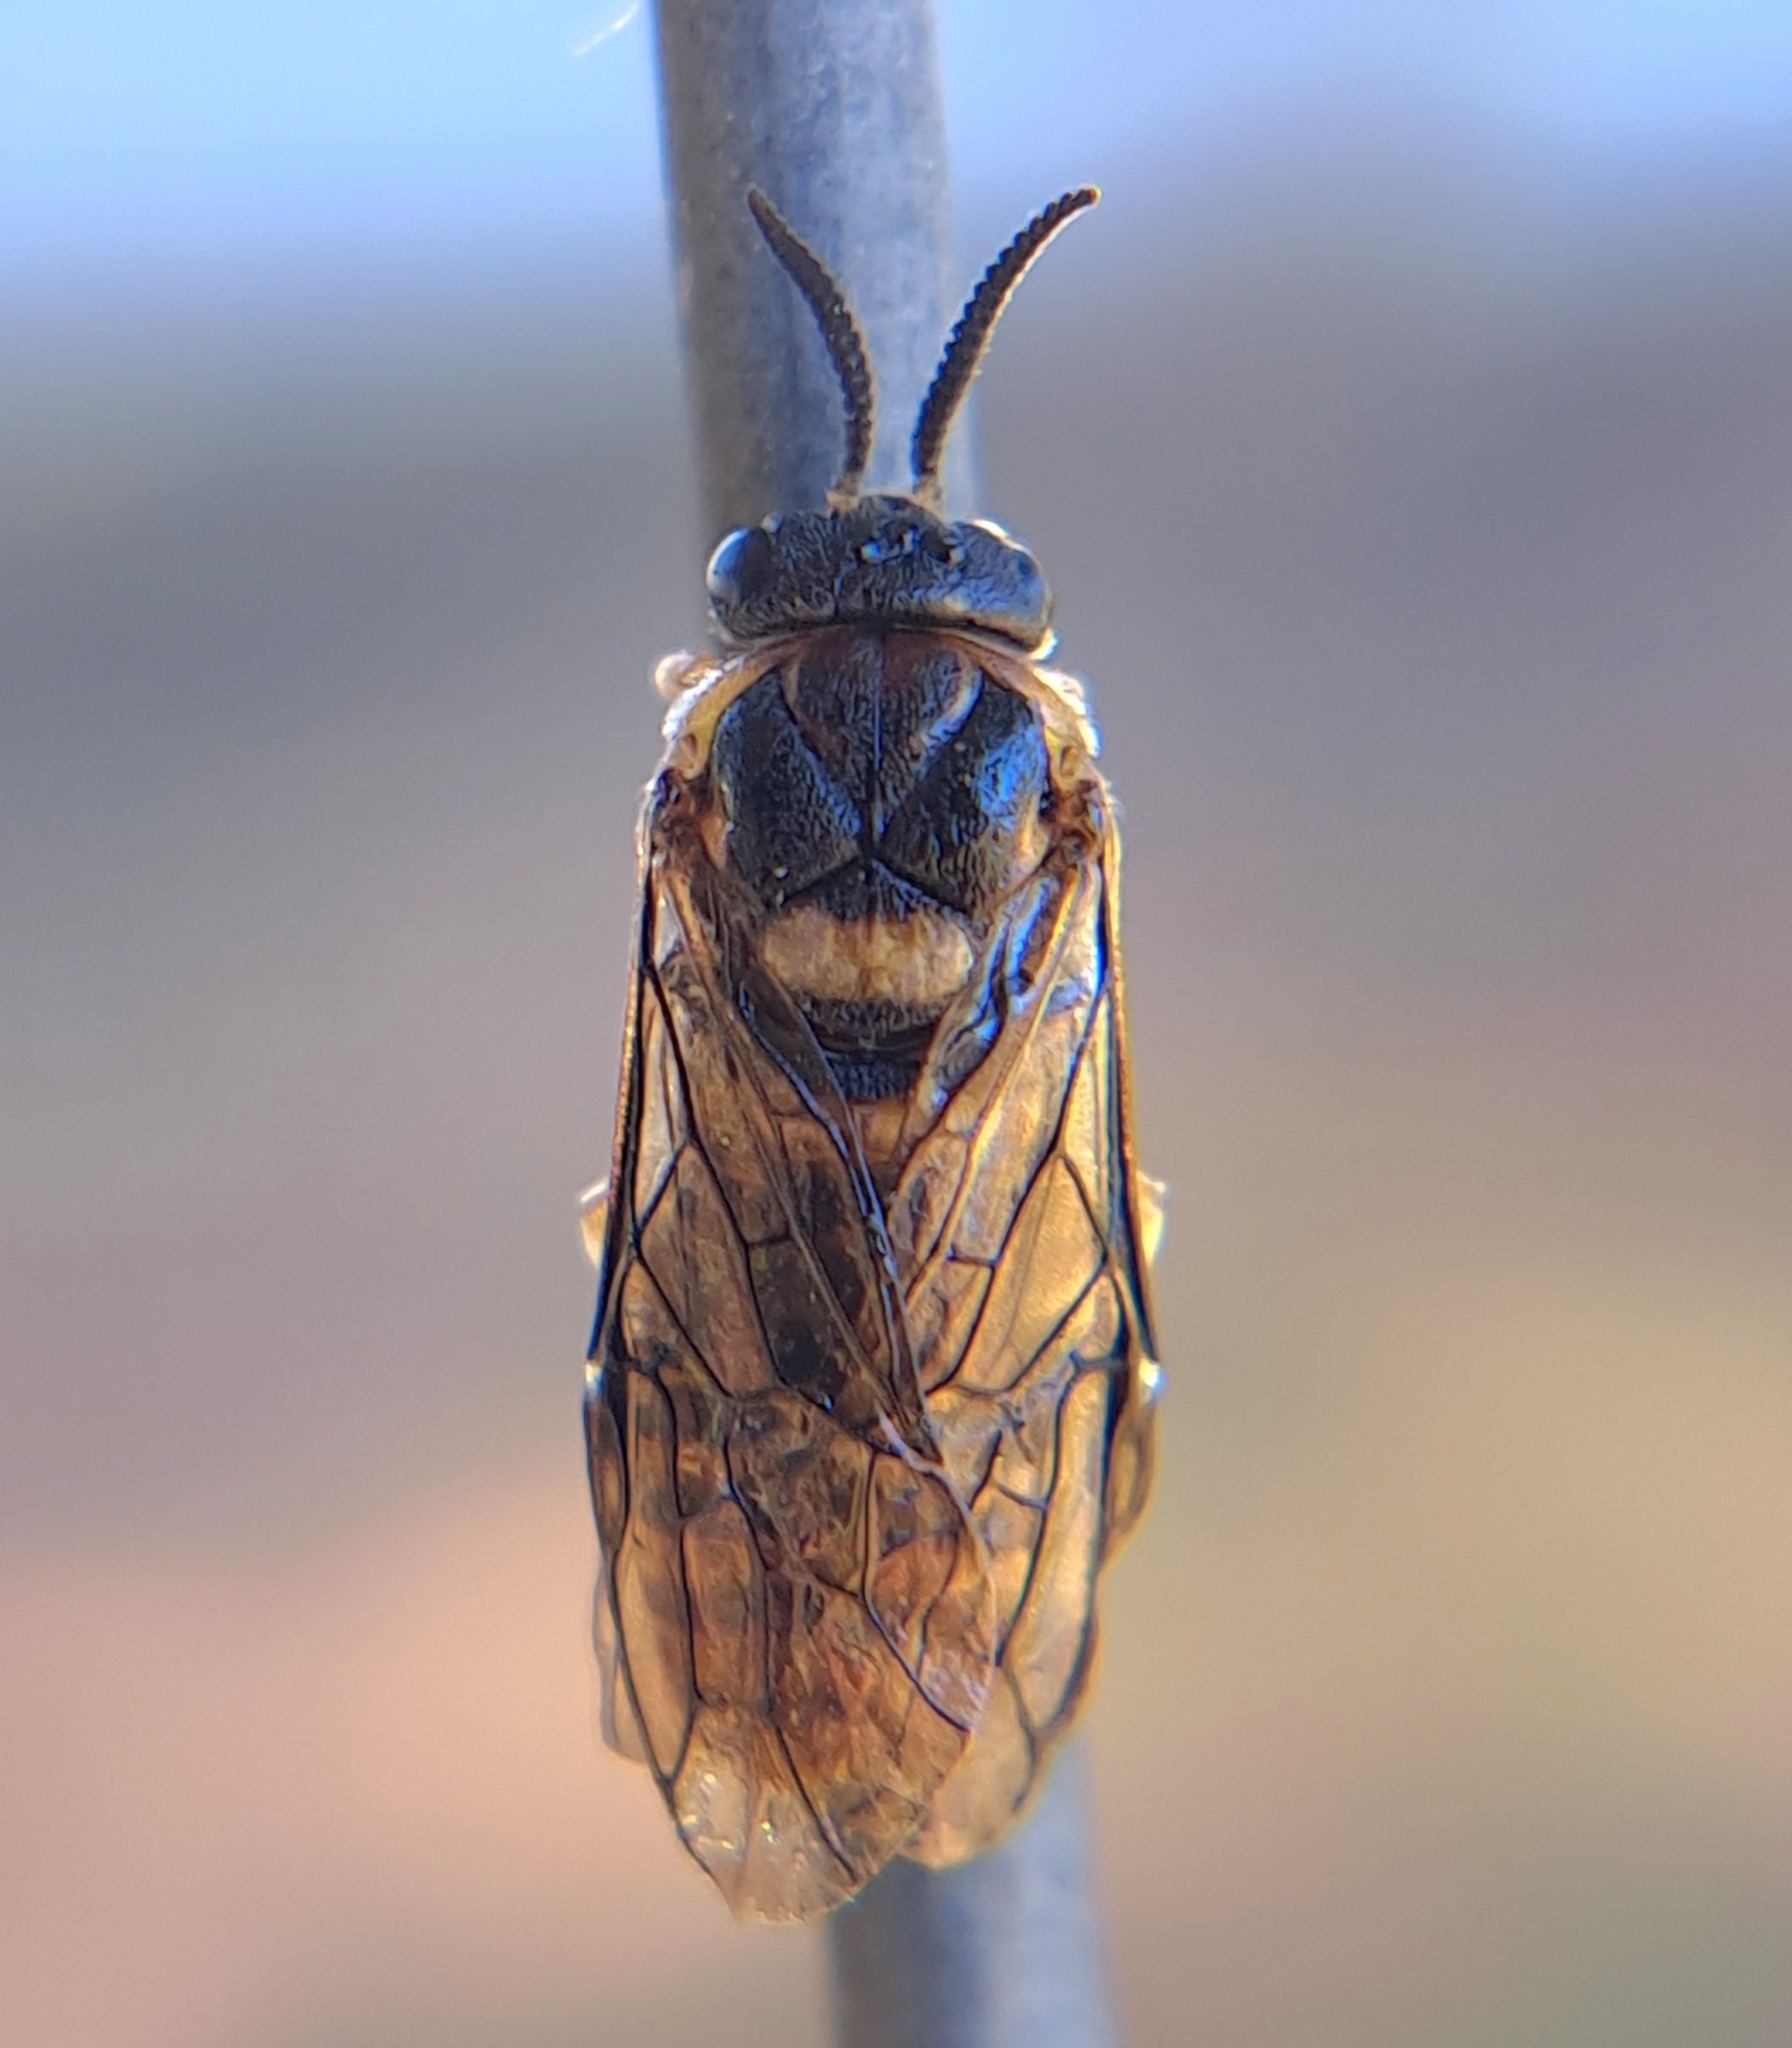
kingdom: Animalia
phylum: Arthropoda
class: Insecta
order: Hymenoptera
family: Diprionidae
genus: Diprion
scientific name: Diprion similis
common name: Pine sawfly
